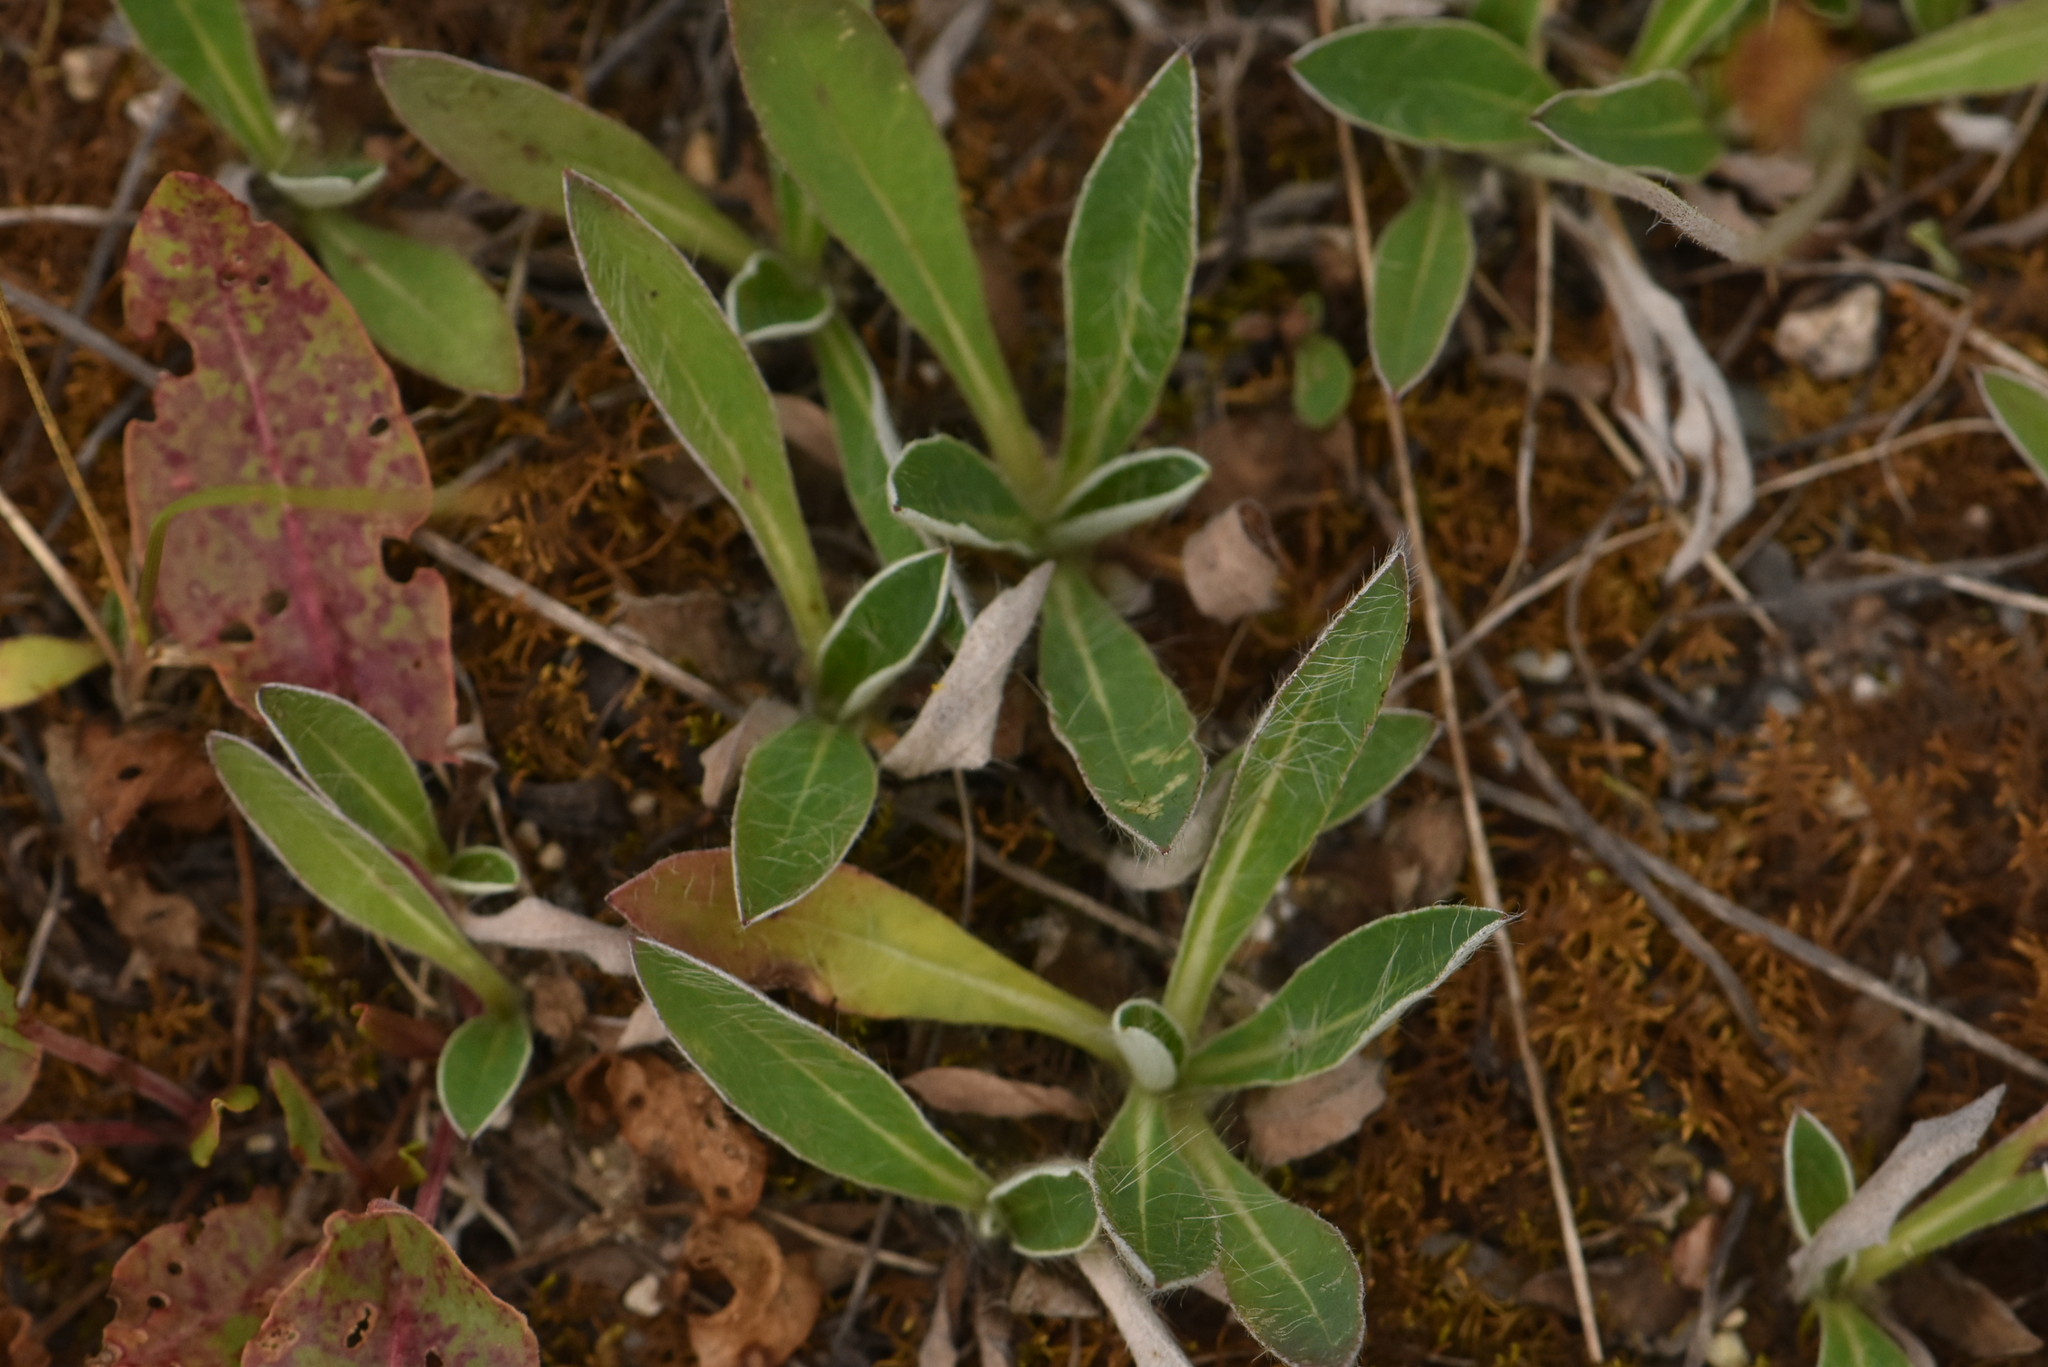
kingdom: Plantae
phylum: Tracheophyta
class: Magnoliopsida
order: Asterales
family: Asteraceae
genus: Pilosella
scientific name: Pilosella officinarum
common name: Mouse-ear hawkweed
